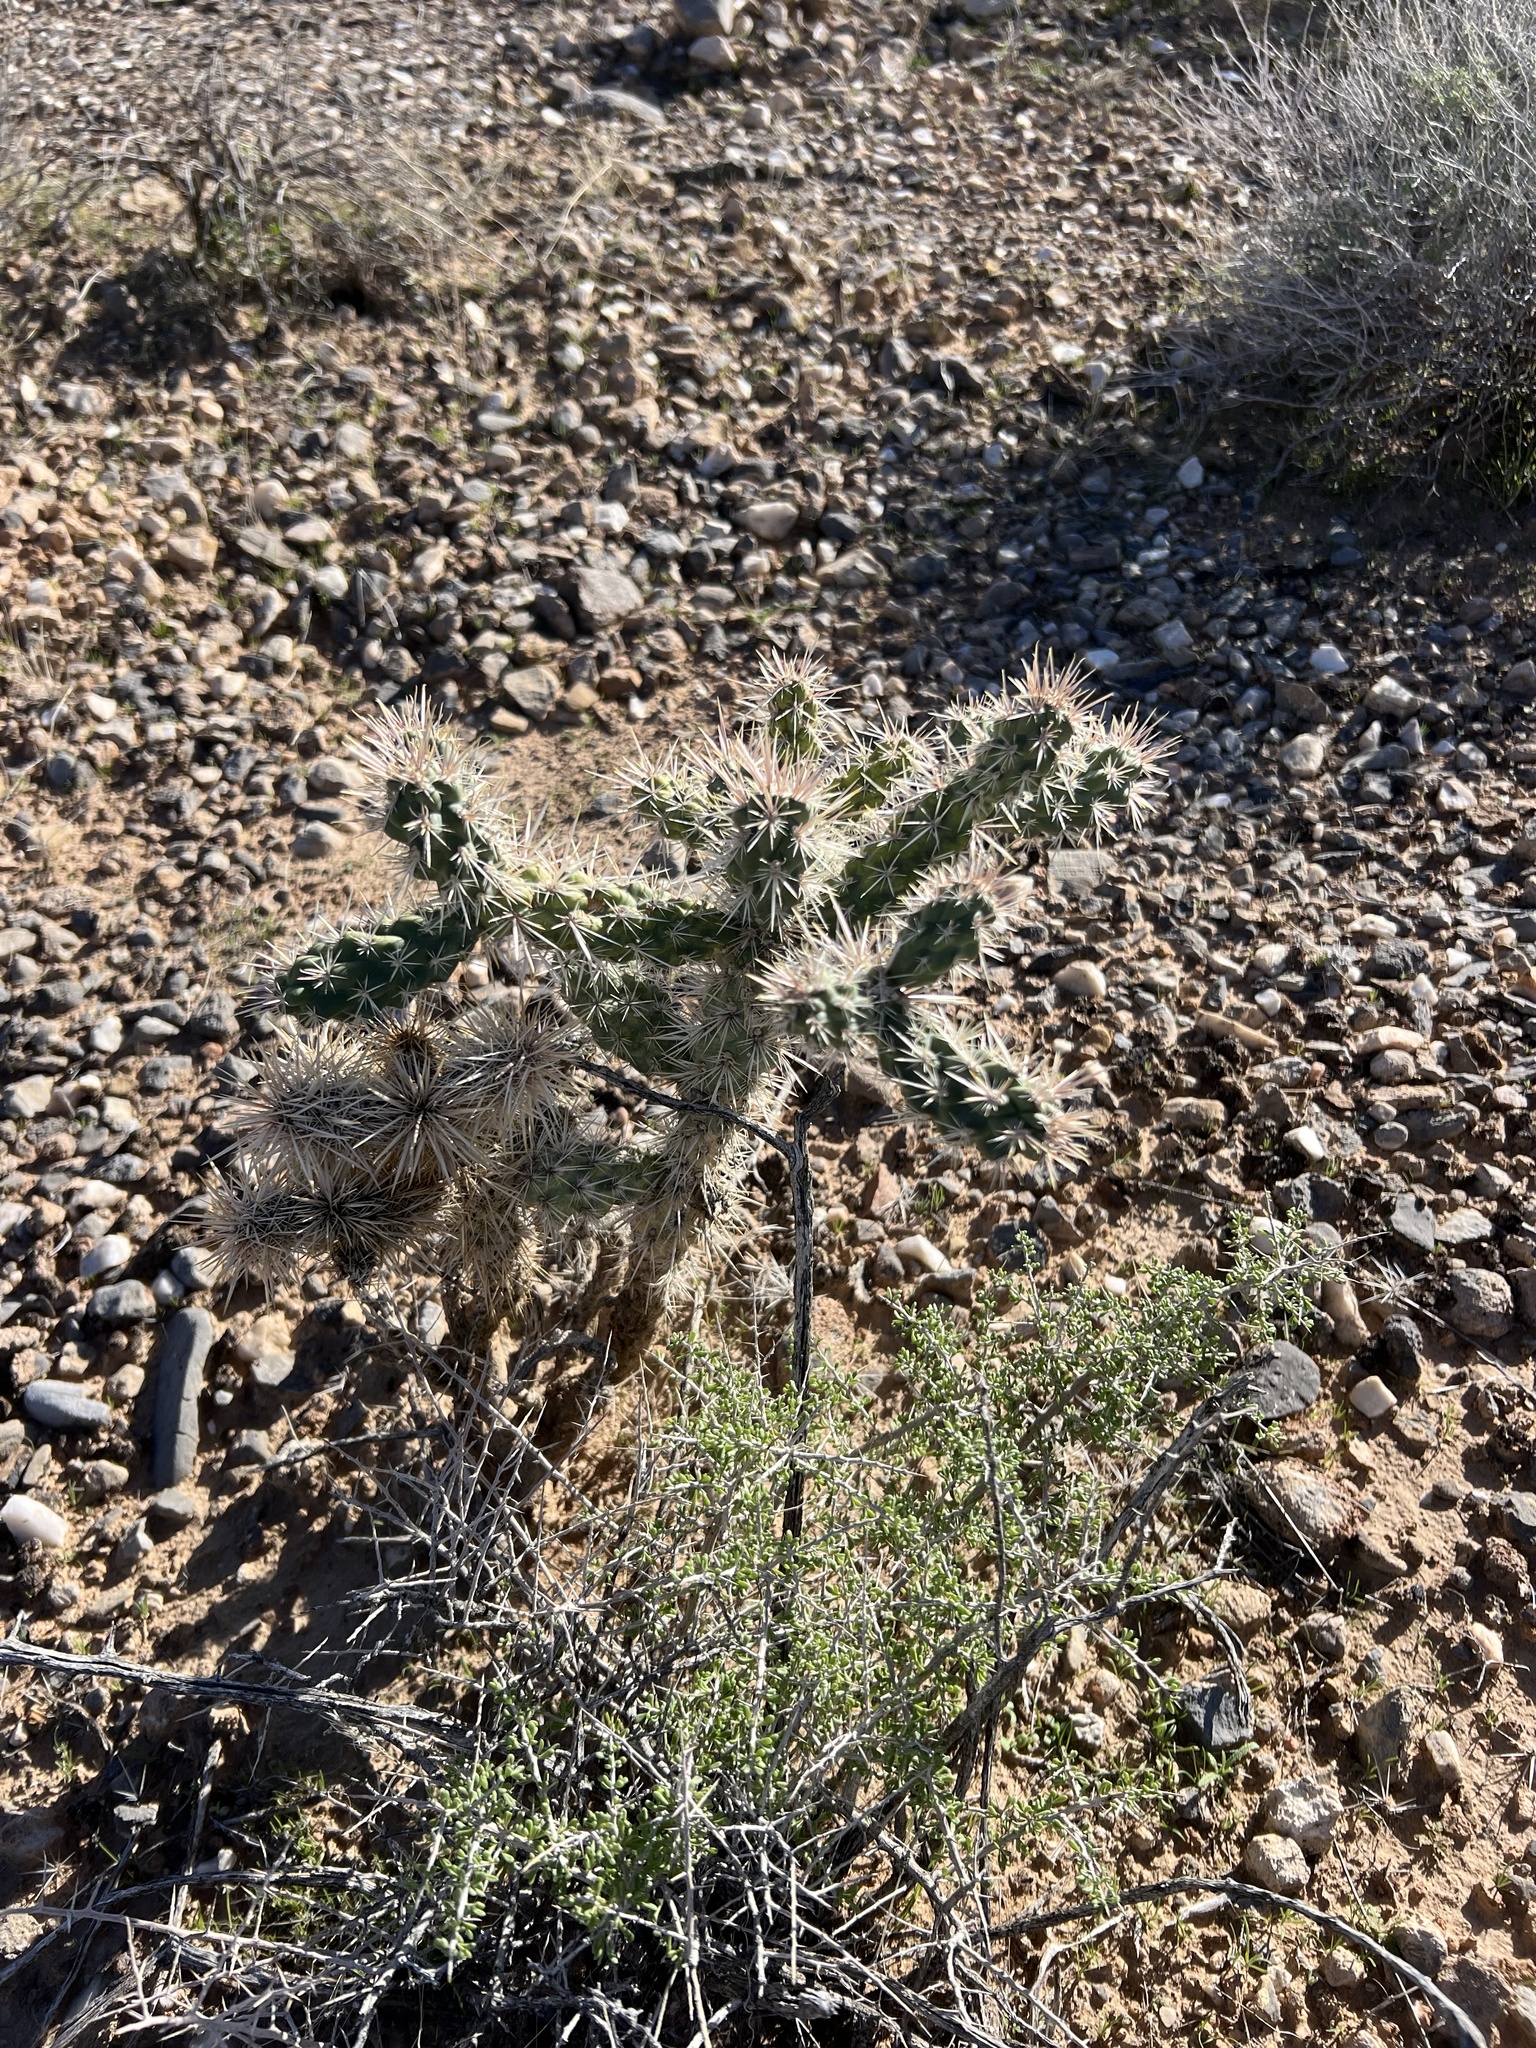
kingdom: Plantae
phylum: Tracheophyta
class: Magnoliopsida
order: Caryophyllales
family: Cactaceae
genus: Cylindropuntia
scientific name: Cylindropuntia echinocarpa
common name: Ground cholla
